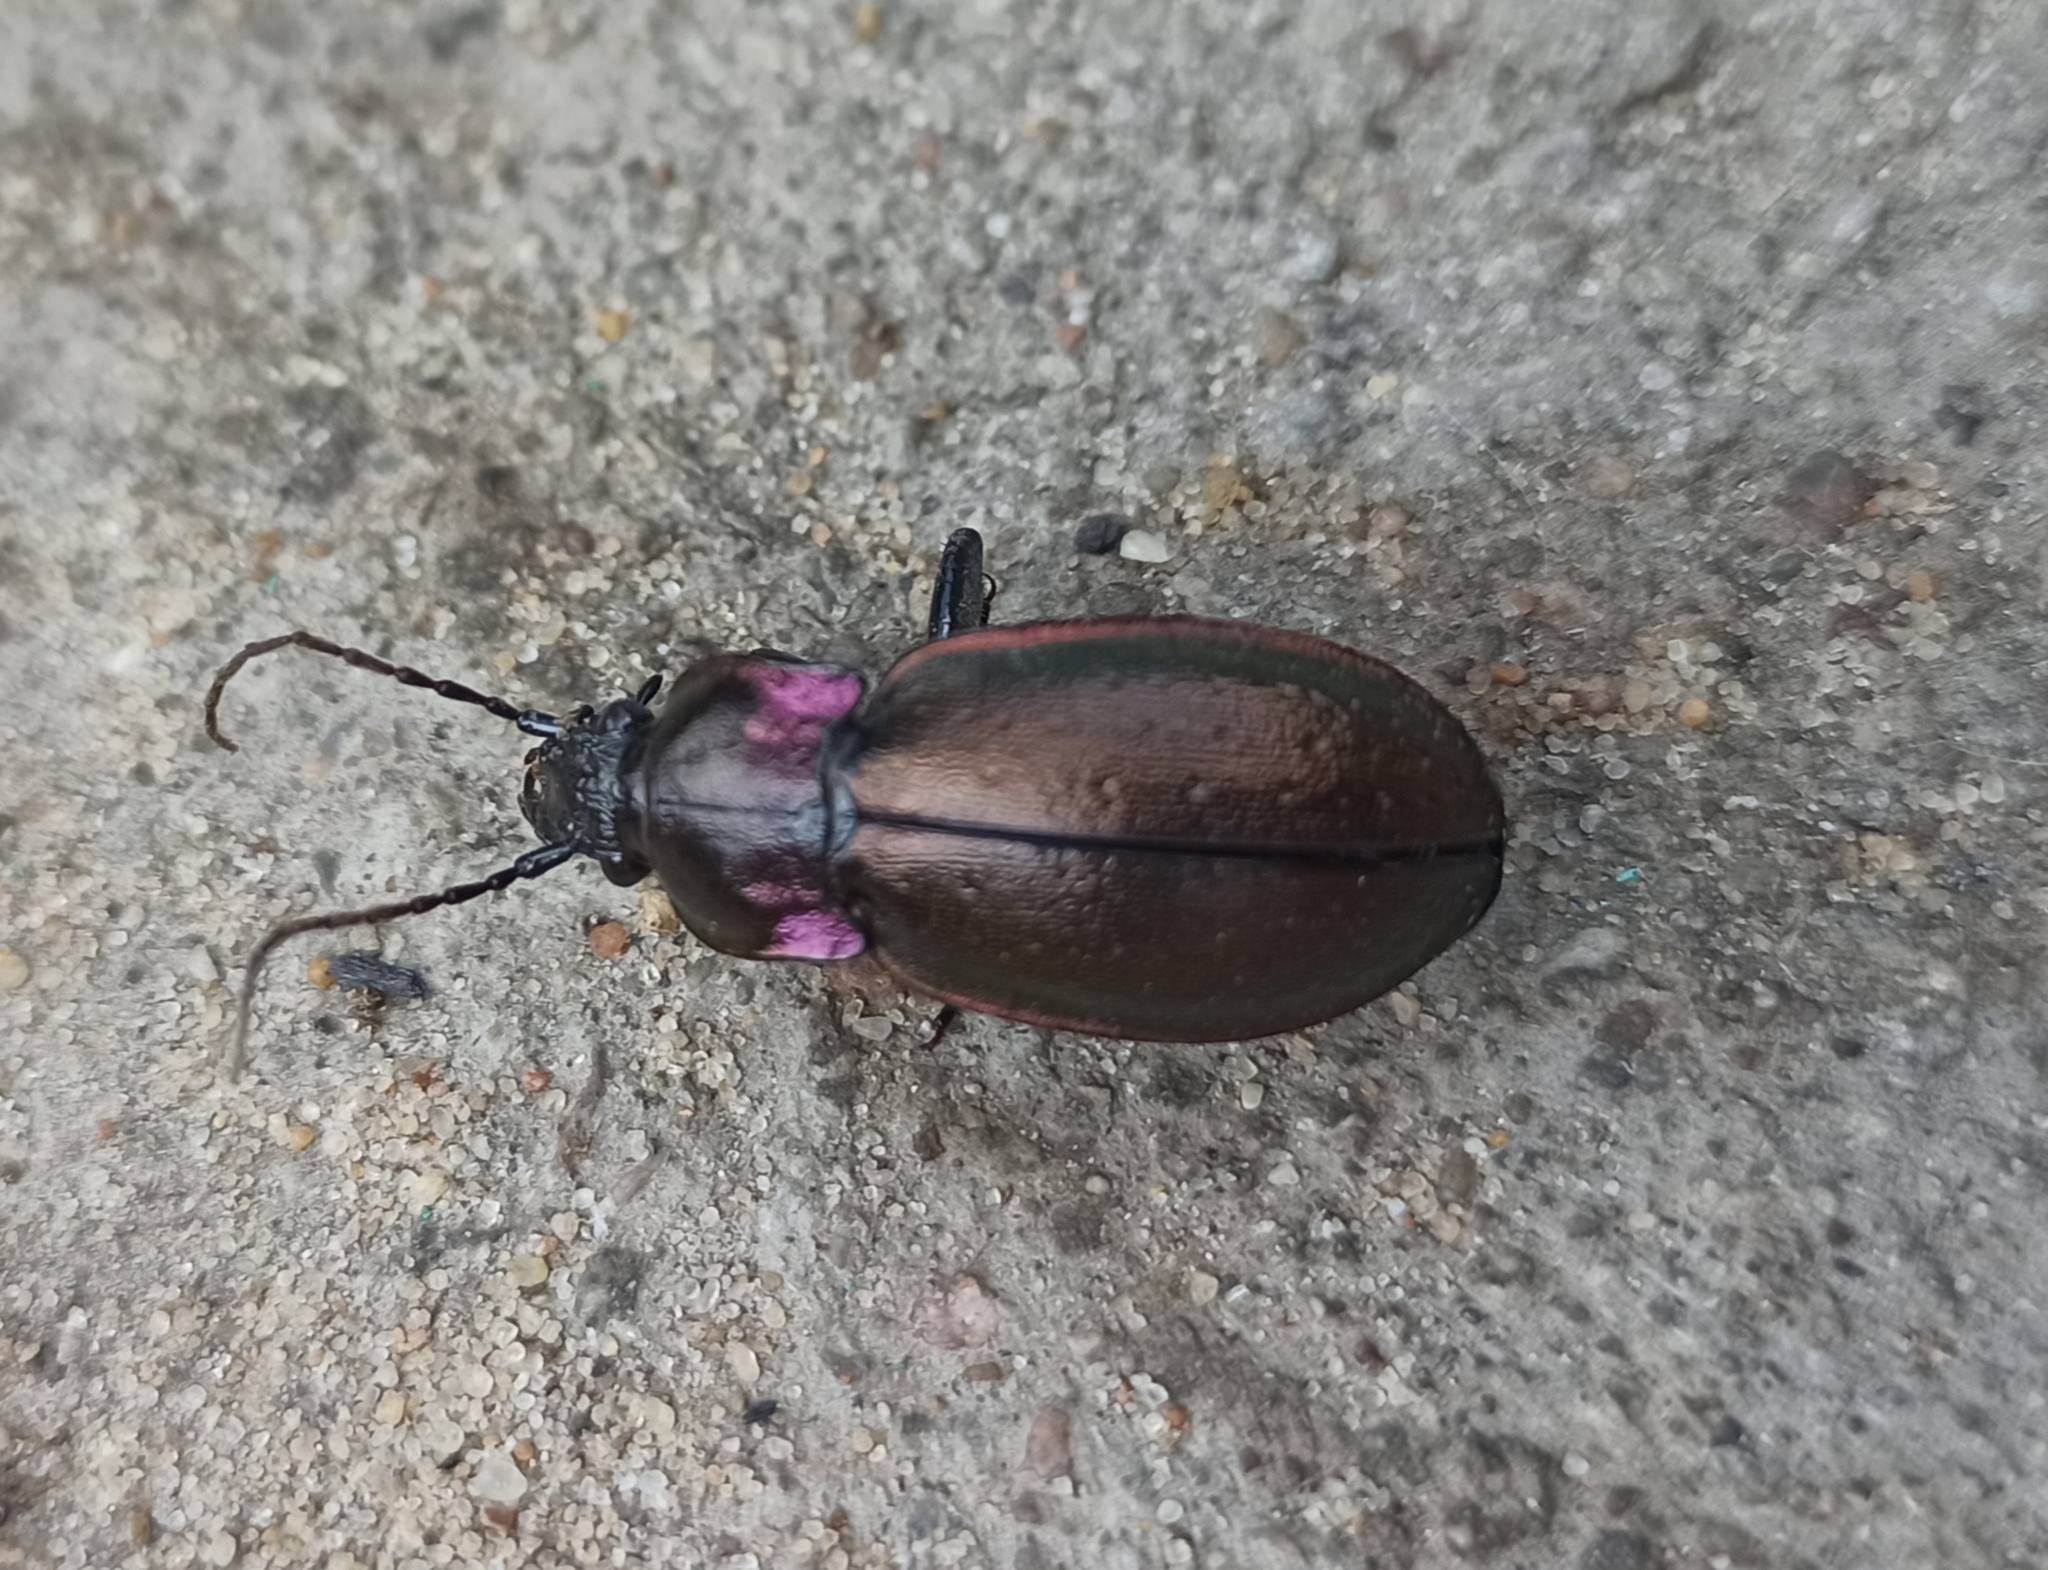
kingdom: Animalia
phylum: Arthropoda
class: Insecta
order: Coleoptera
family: Carabidae
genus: Carabus
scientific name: Carabus nemoralis
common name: European ground beetle
